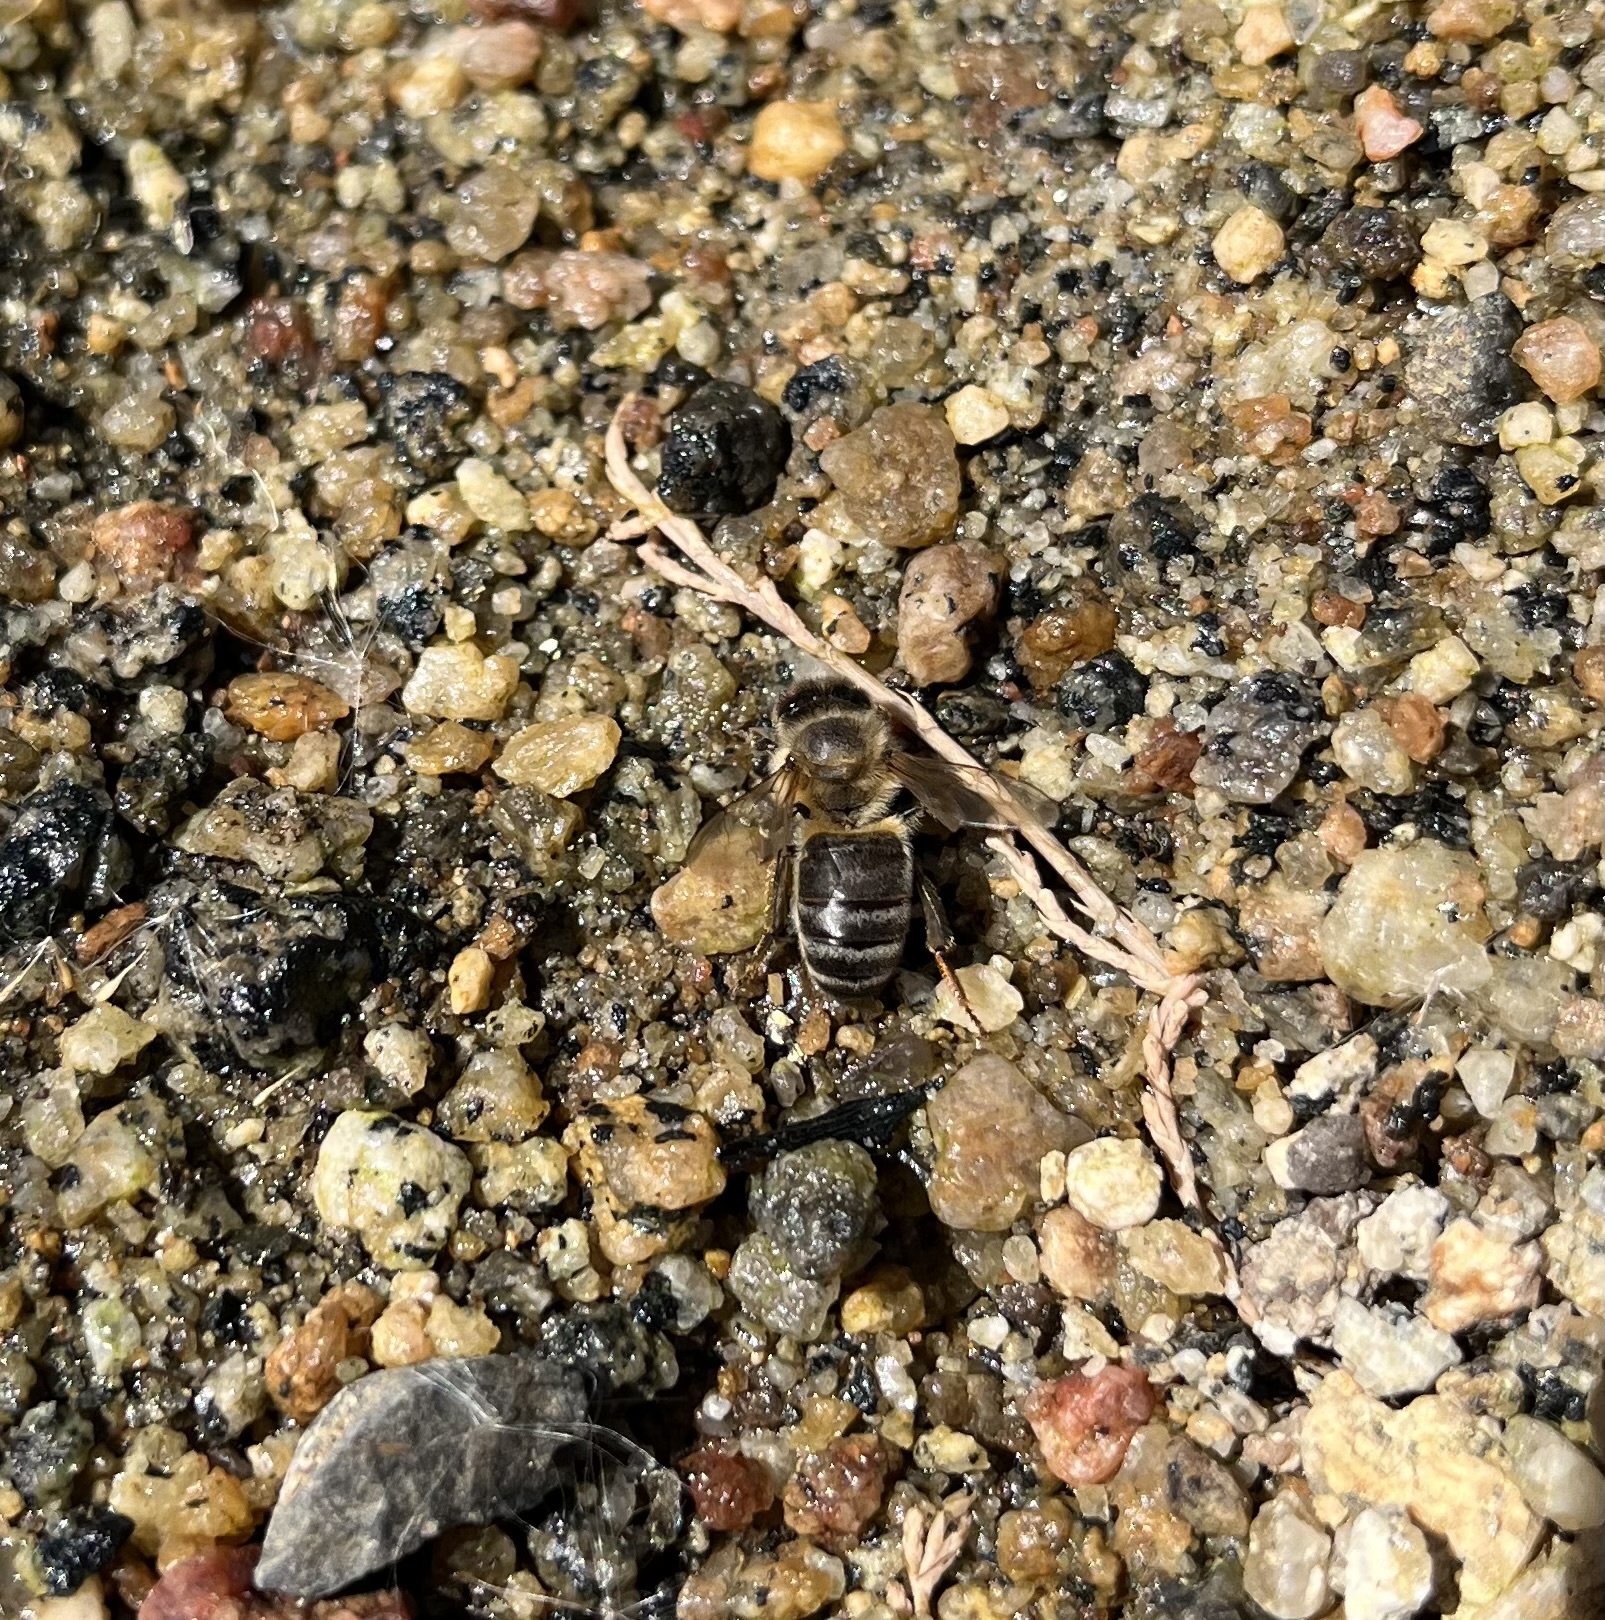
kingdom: Animalia
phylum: Arthropoda
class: Insecta
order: Hymenoptera
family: Apidae
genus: Apis
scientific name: Apis mellifera
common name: Honey bee
